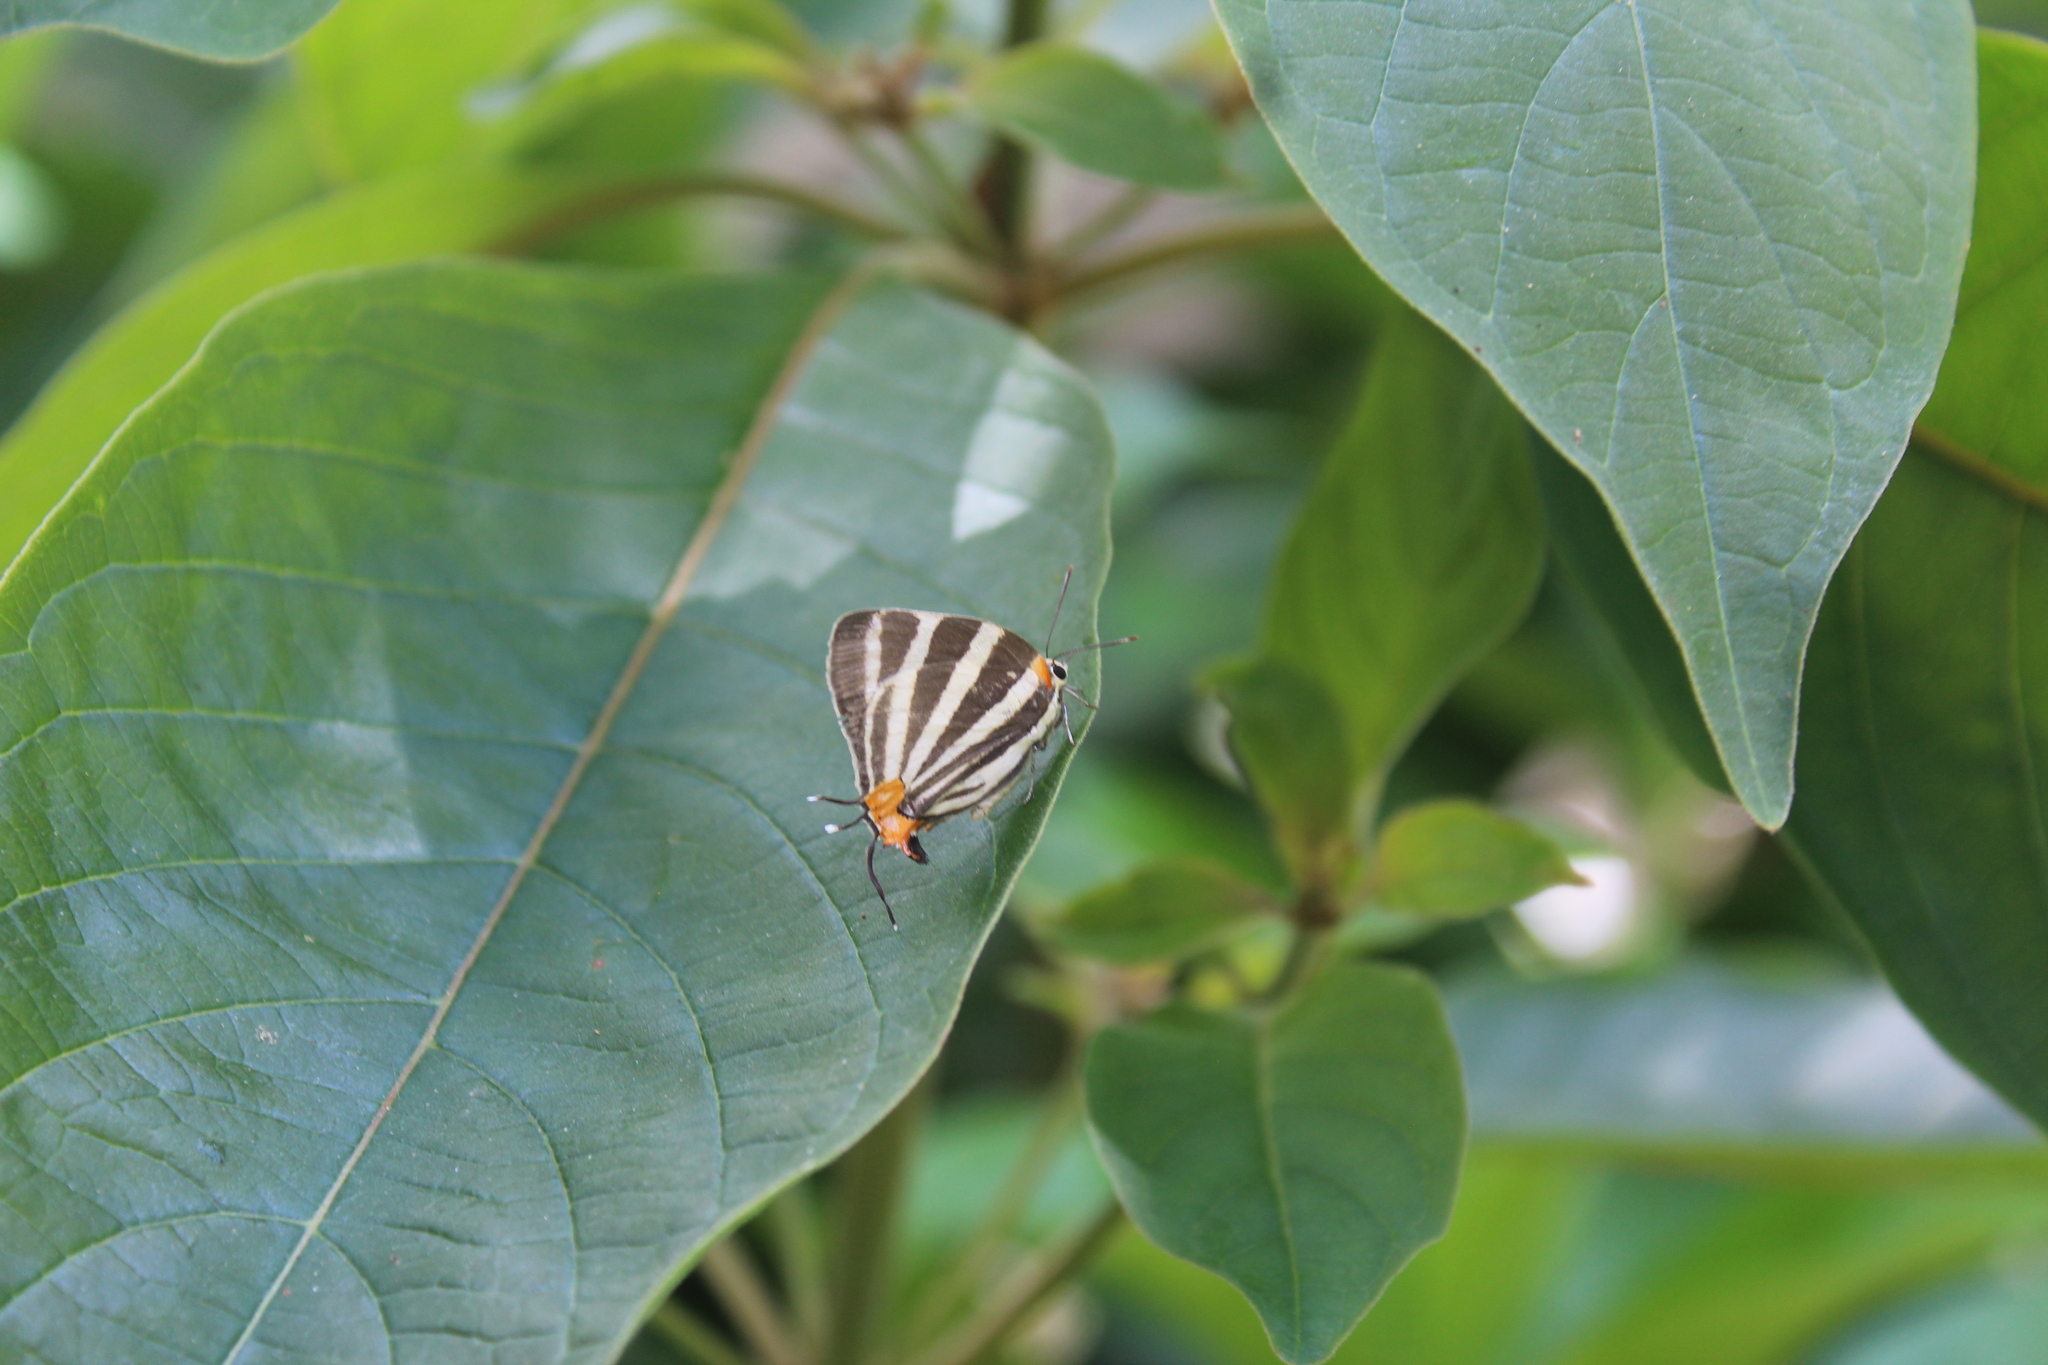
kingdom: Animalia
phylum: Arthropoda
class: Insecta
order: Lepidoptera
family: Lycaenidae
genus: Thecla
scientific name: Thecla bathildis
